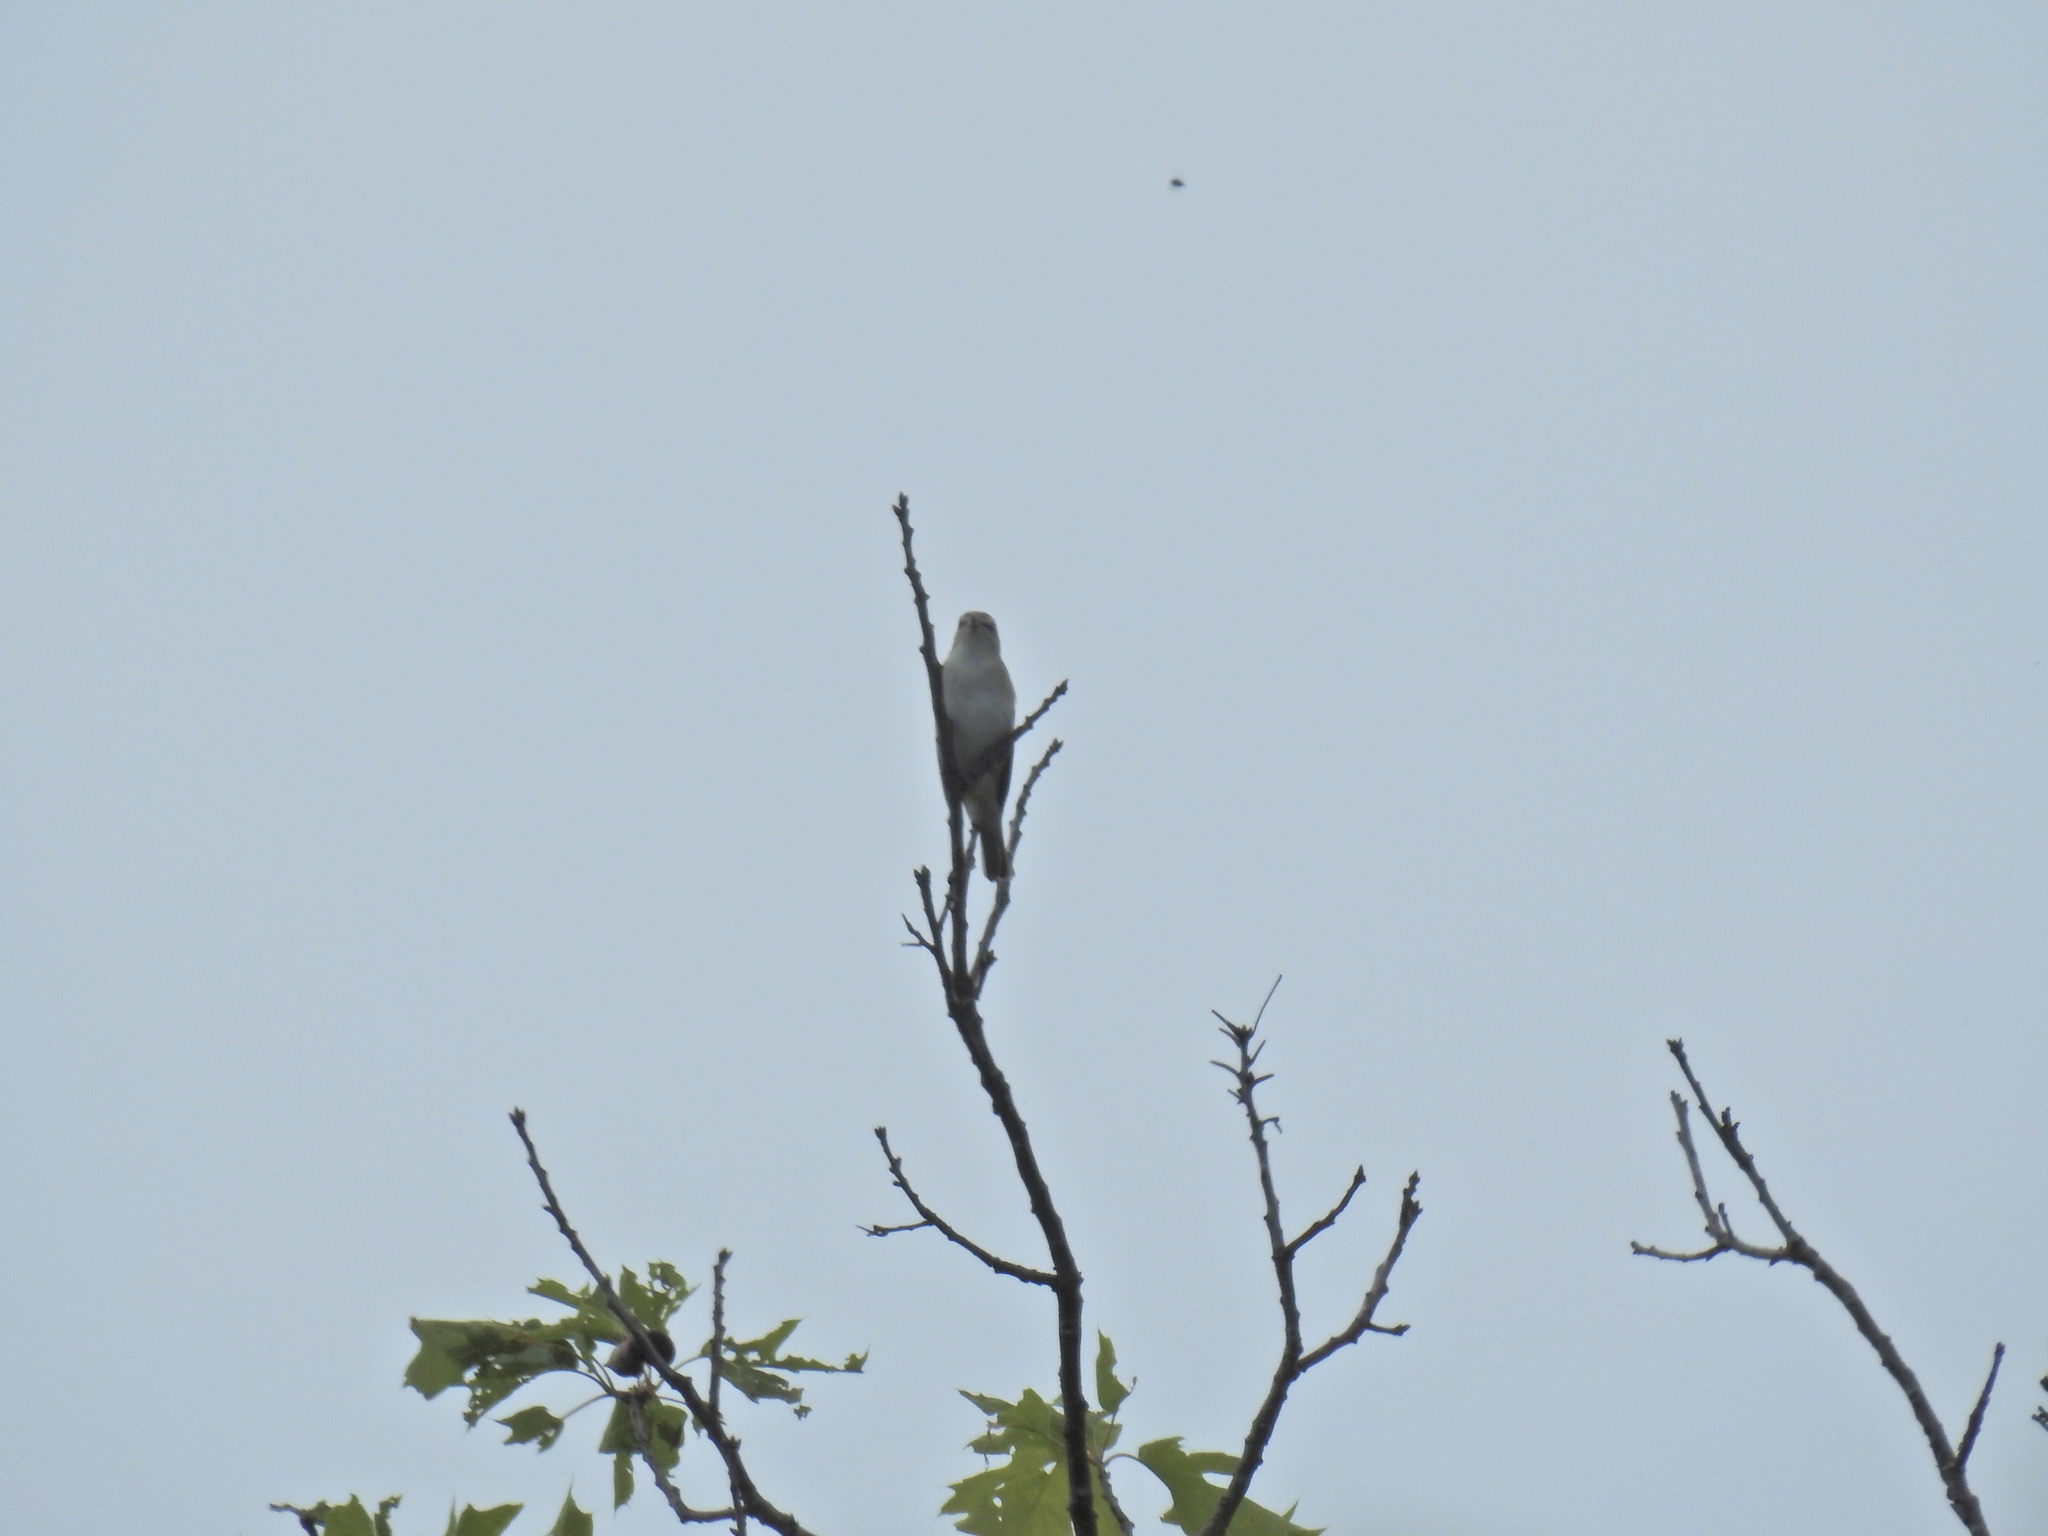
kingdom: Animalia
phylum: Chordata
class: Aves
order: Passeriformes
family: Vireonidae
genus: Vireo
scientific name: Vireo olivaceus
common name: Red-eyed vireo
